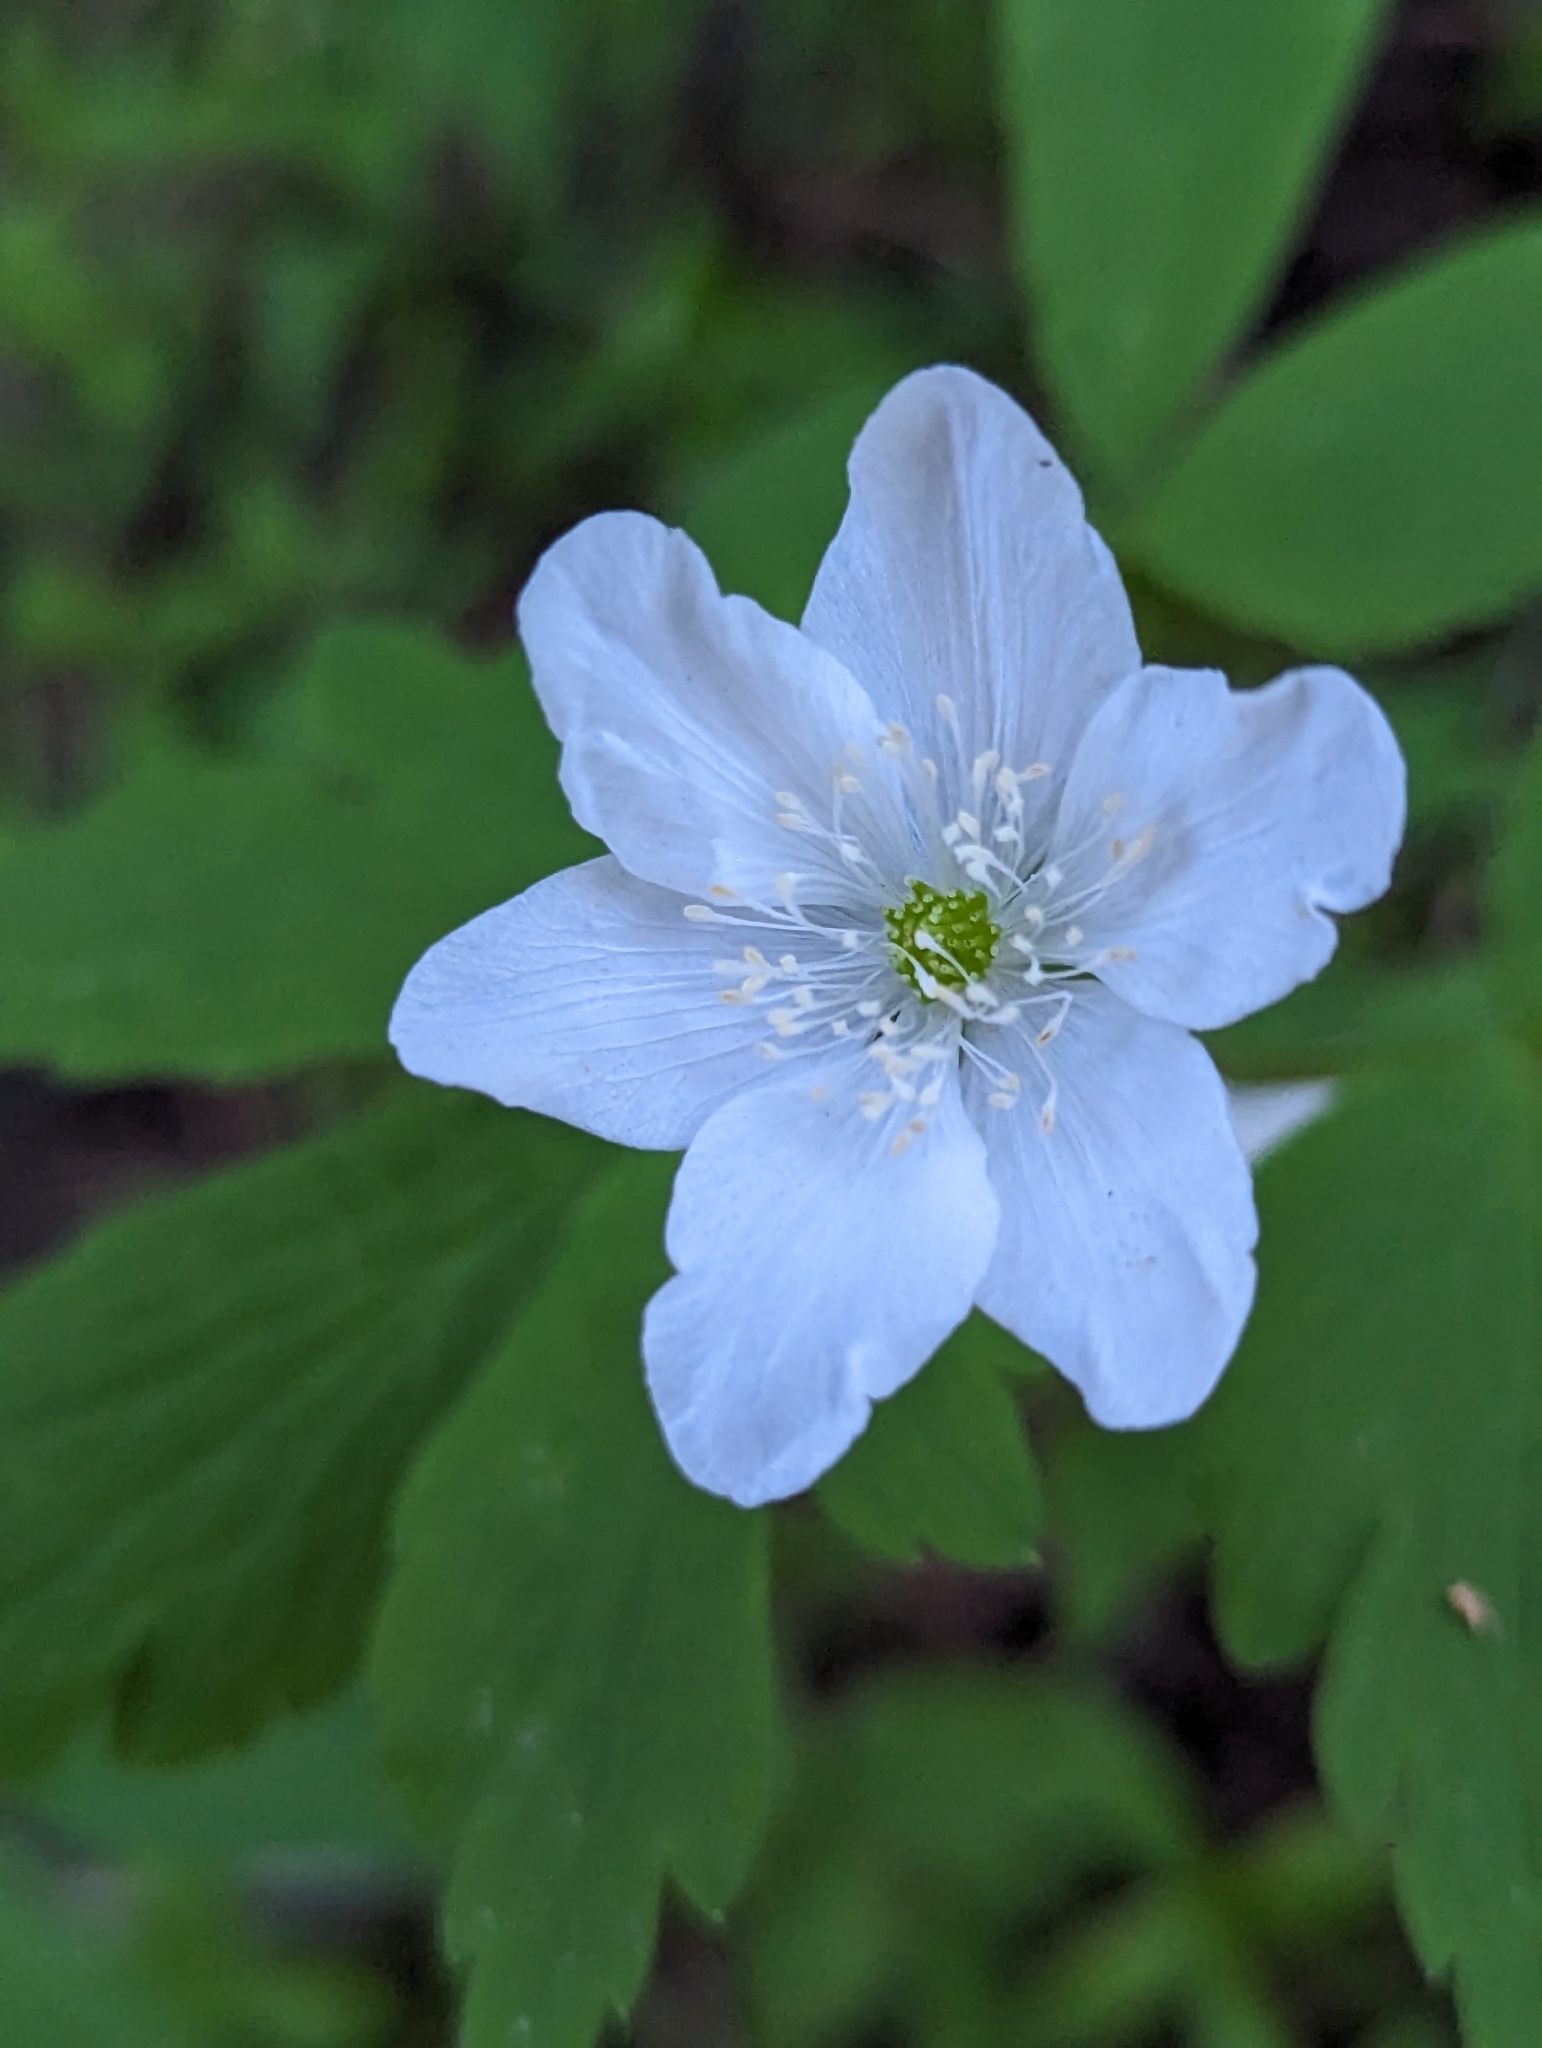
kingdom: Plantae
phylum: Tracheophyta
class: Magnoliopsida
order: Ranunculales
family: Ranunculaceae
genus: Anemone
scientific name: Anemone piperi
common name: Piper's anemone
